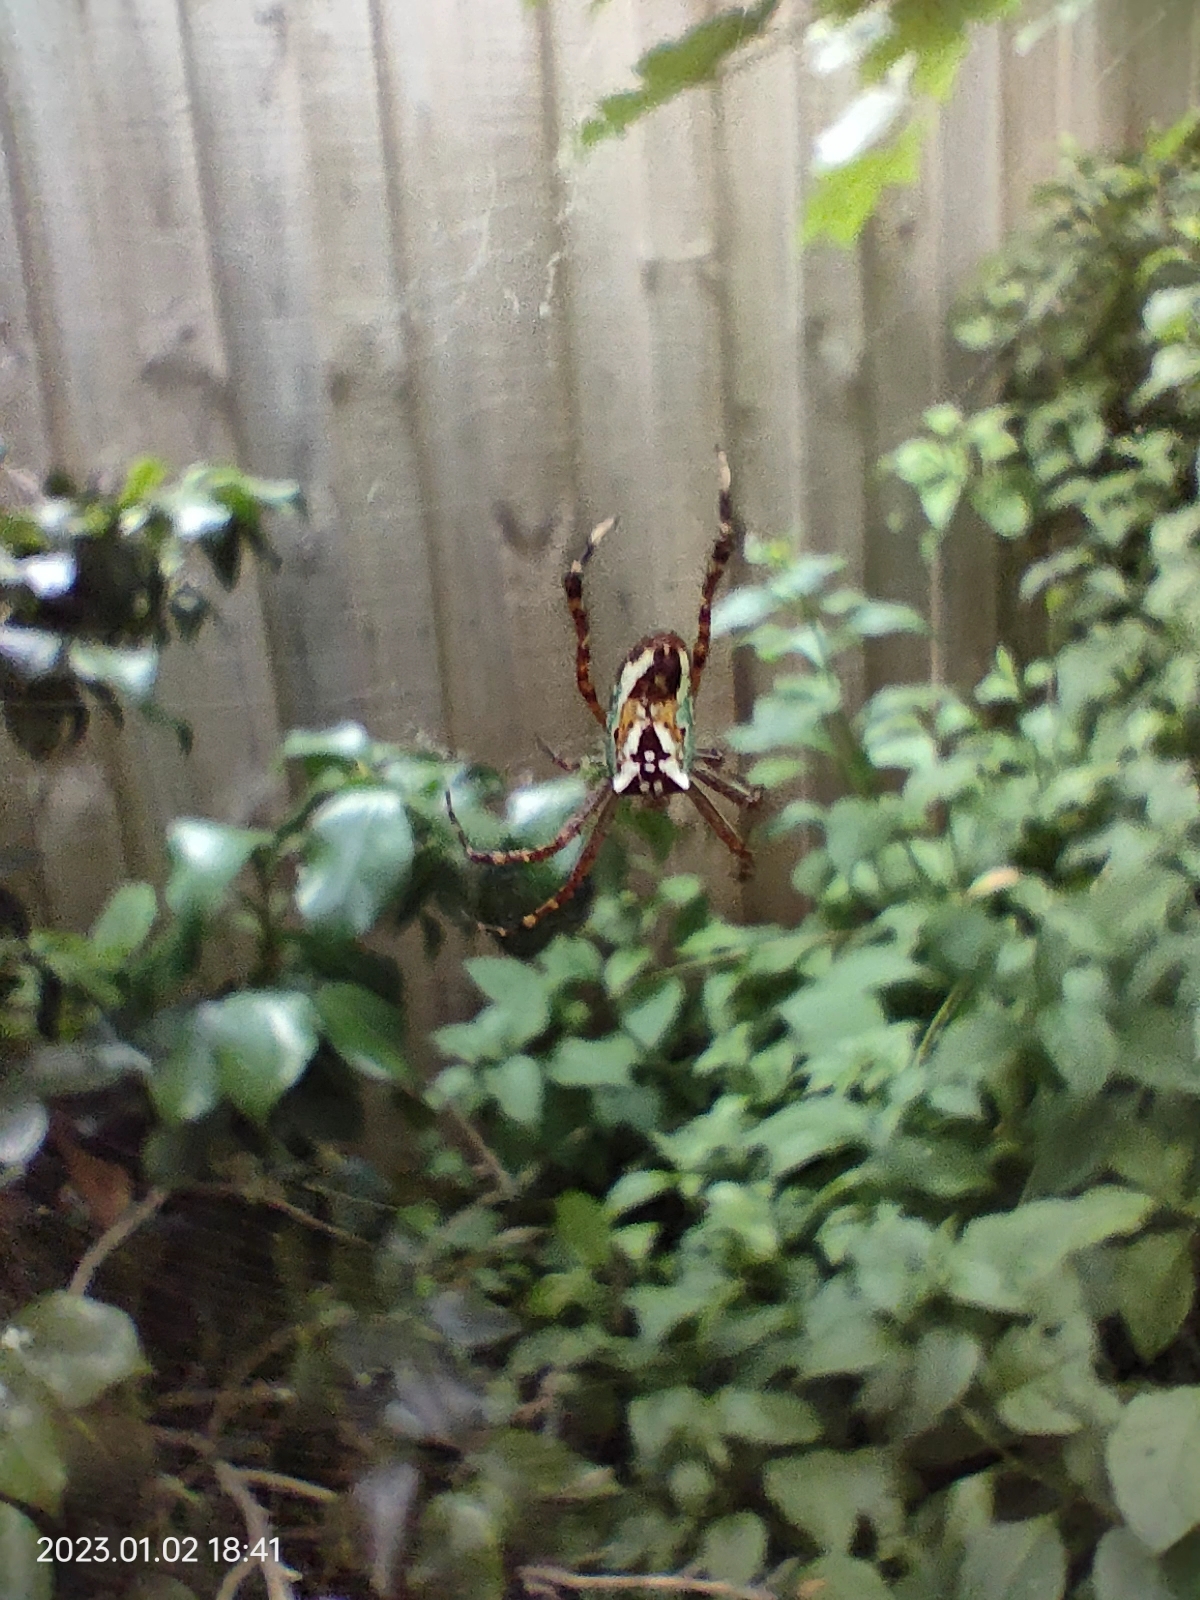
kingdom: Animalia
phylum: Arthropoda
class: Arachnida
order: Araneae
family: Araneidae
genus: Plebs
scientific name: Plebs bradleyi
